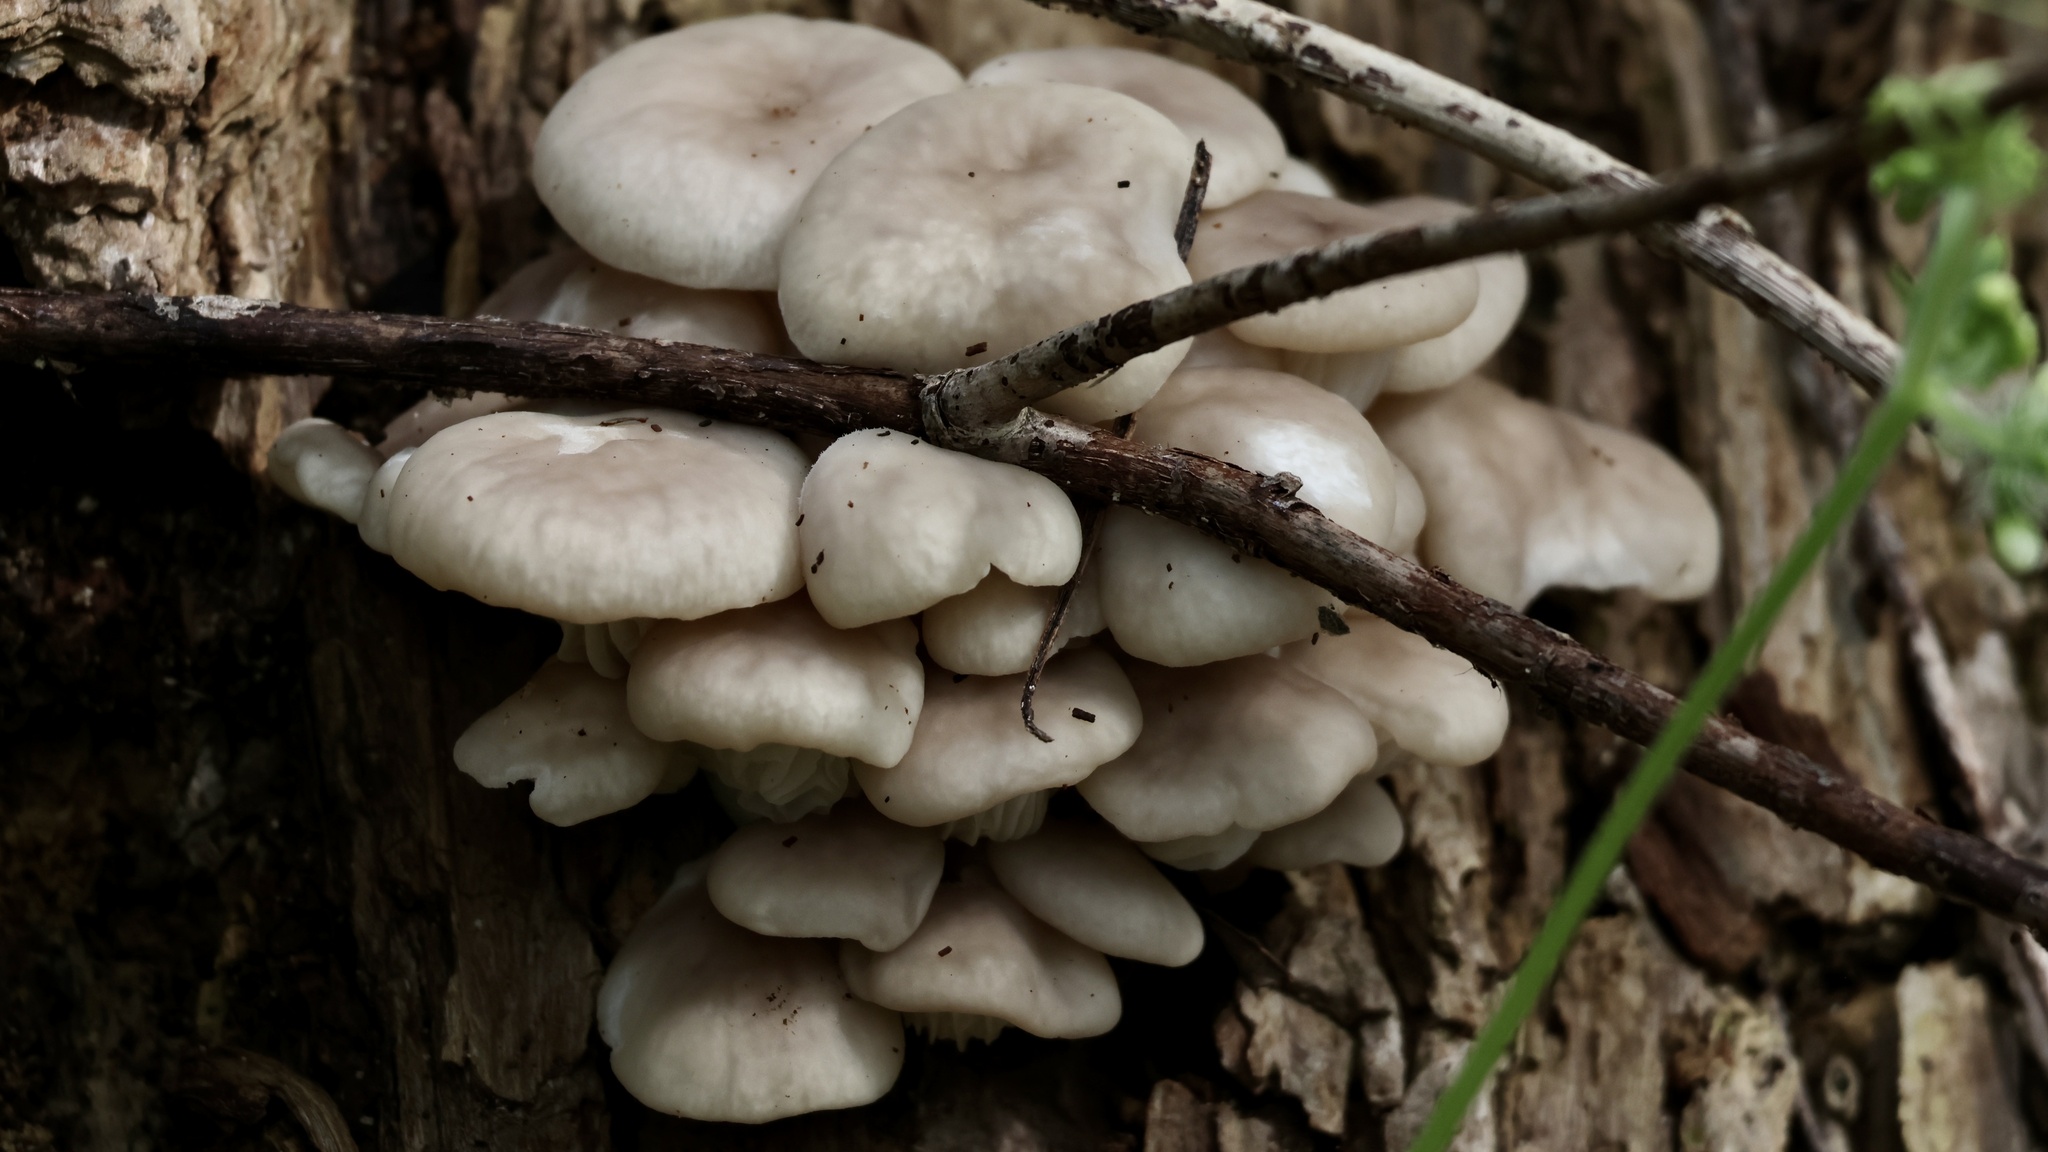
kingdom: Fungi
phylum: Basidiomycota
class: Agaricomycetes
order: Agaricales
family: Pleurotaceae
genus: Pleurotus
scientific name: Pleurotus pulmonarius
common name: Pale oyster
